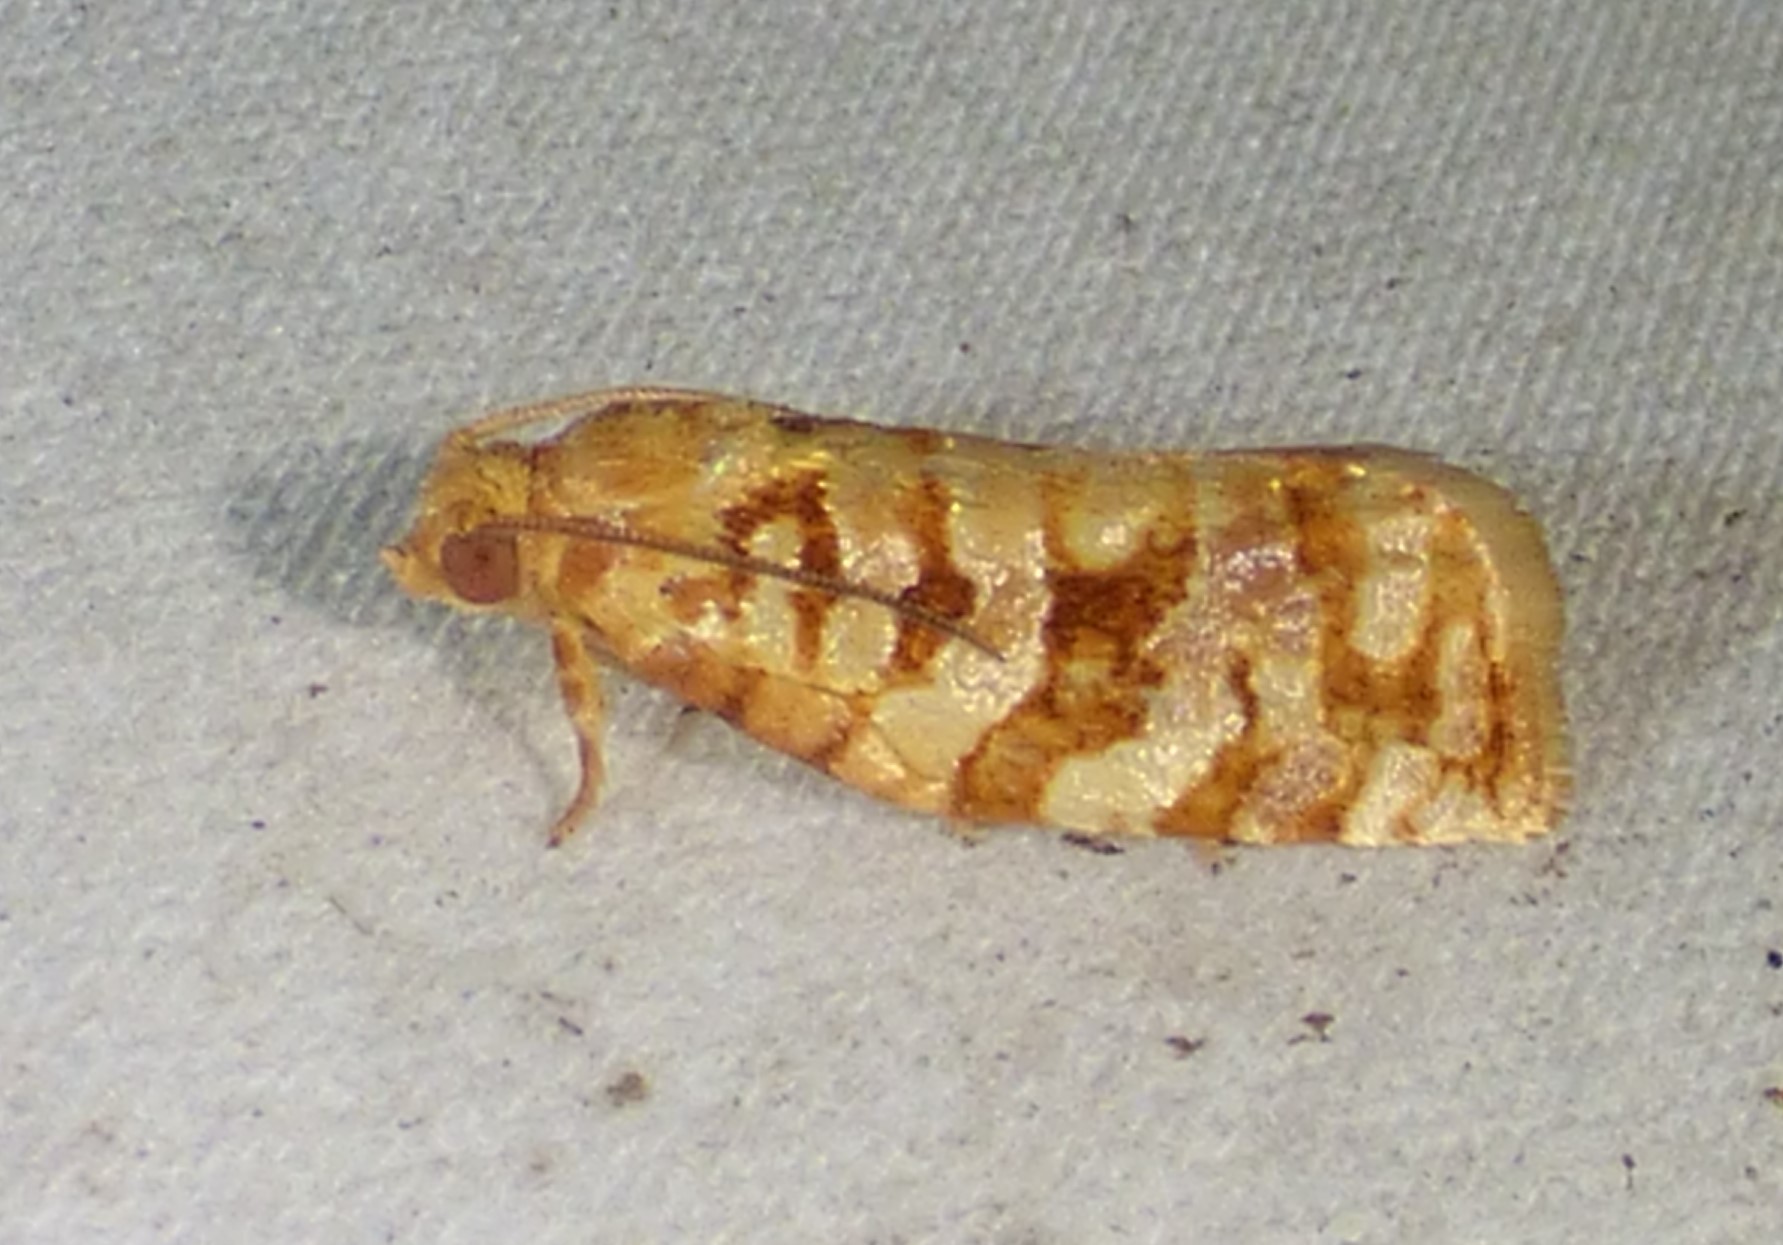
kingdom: Animalia
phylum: Arthropoda
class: Insecta
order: Lepidoptera
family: Tortricidae
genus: Archips
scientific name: Archips georgiana
